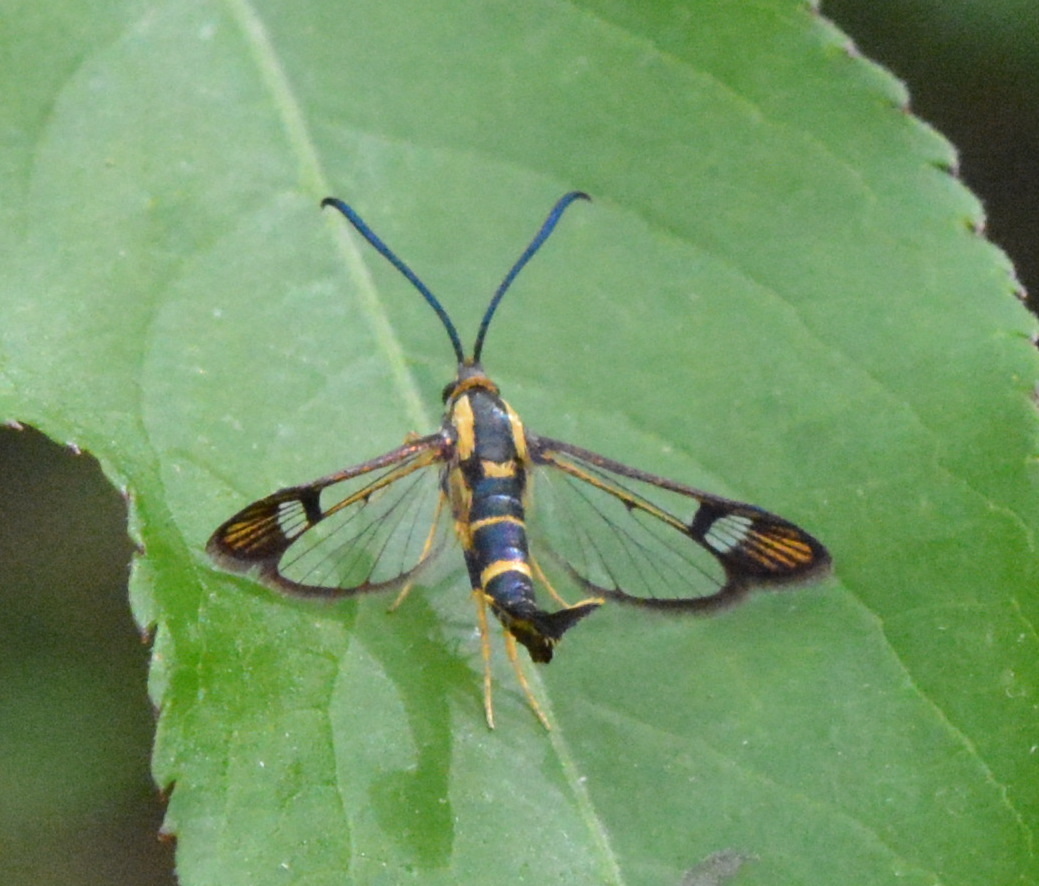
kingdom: Animalia
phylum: Arthropoda
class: Insecta
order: Lepidoptera
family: Sesiidae
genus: Synanthedon
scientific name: Synanthedon scitula
